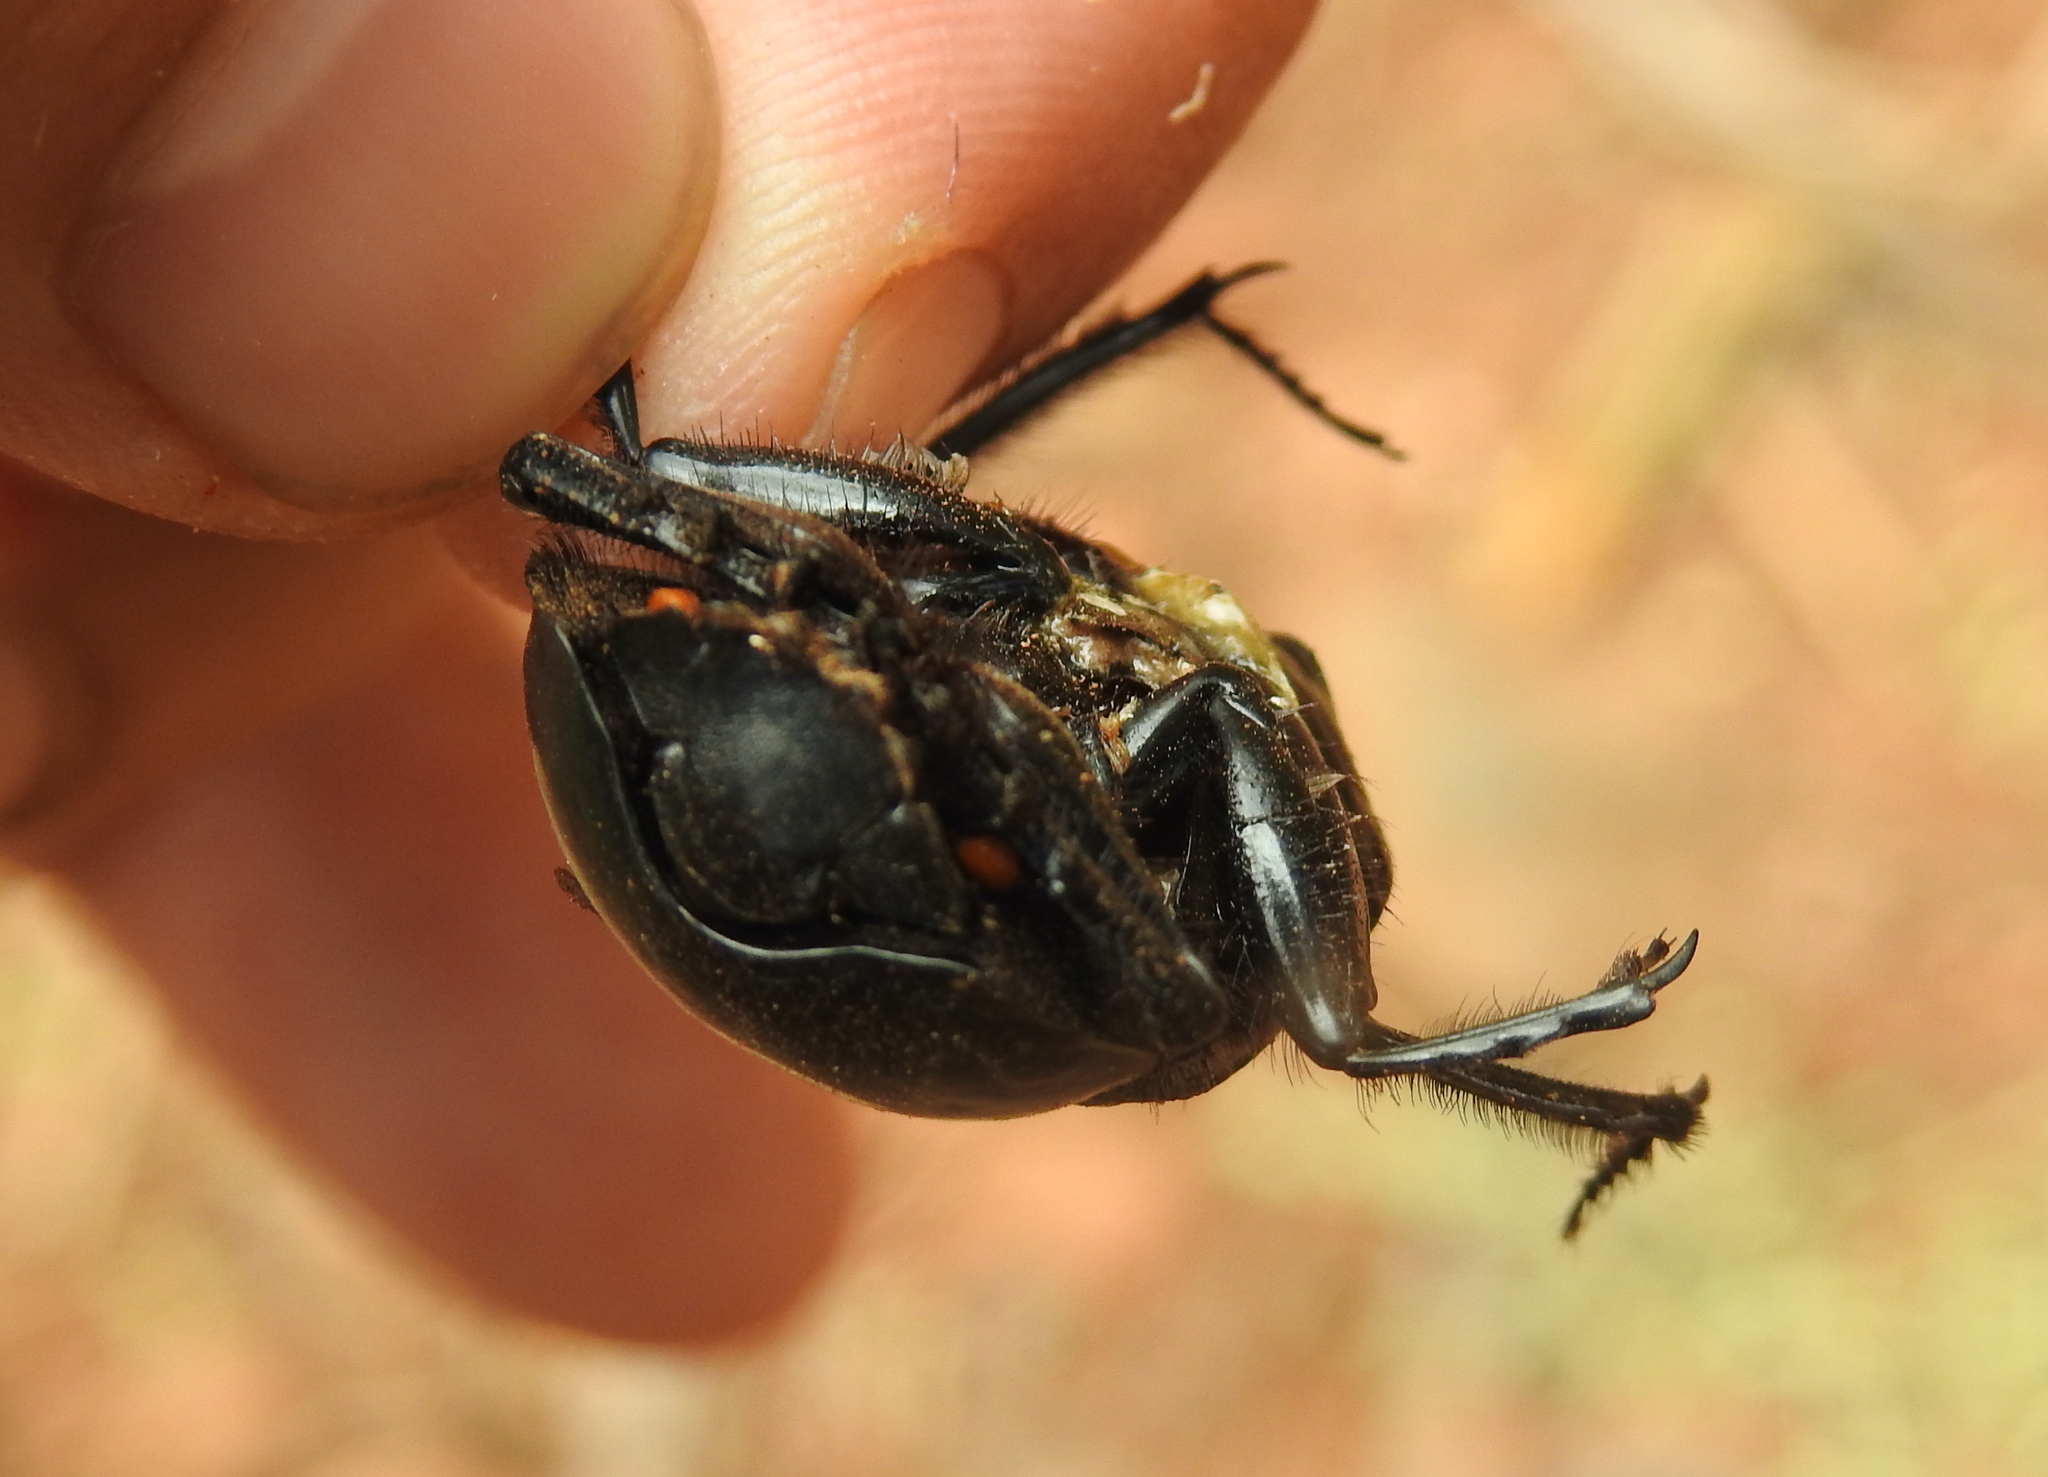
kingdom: Animalia
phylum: Arthropoda
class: Insecta
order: Coleoptera
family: Scarabaeidae
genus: Scarabaeus
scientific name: Scarabaeus rusticus
